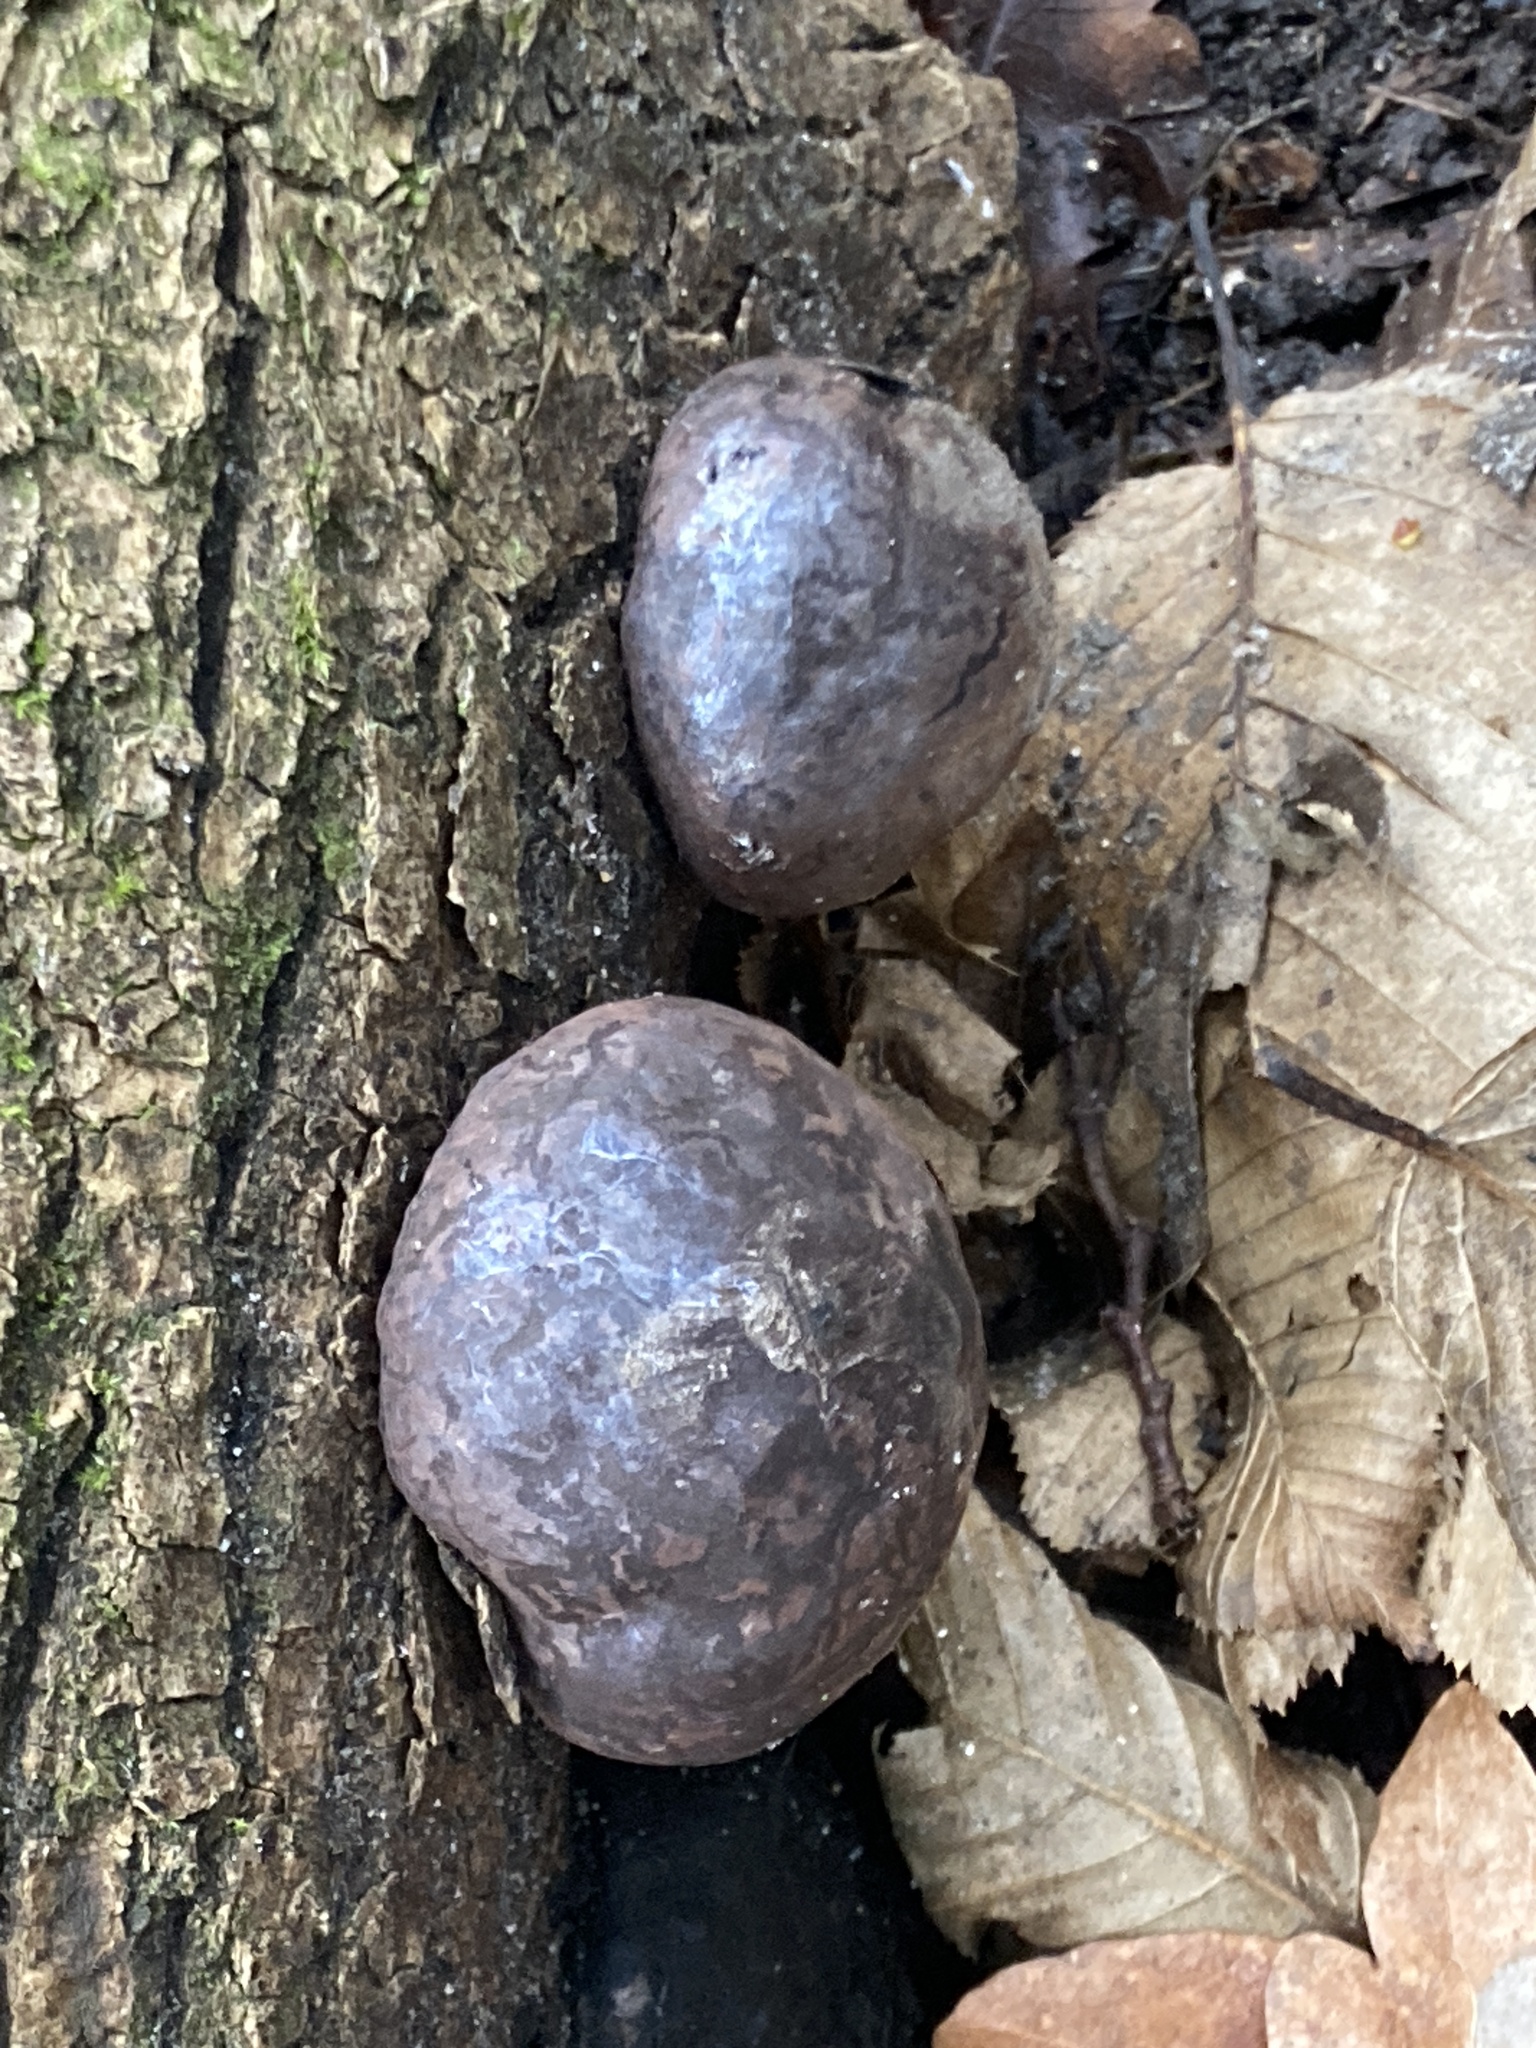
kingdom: Fungi
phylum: Ascomycota
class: Sordariomycetes
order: Xylariales
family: Hypoxylaceae
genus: Daldinia
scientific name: Daldinia concentrica
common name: Cramp balls
